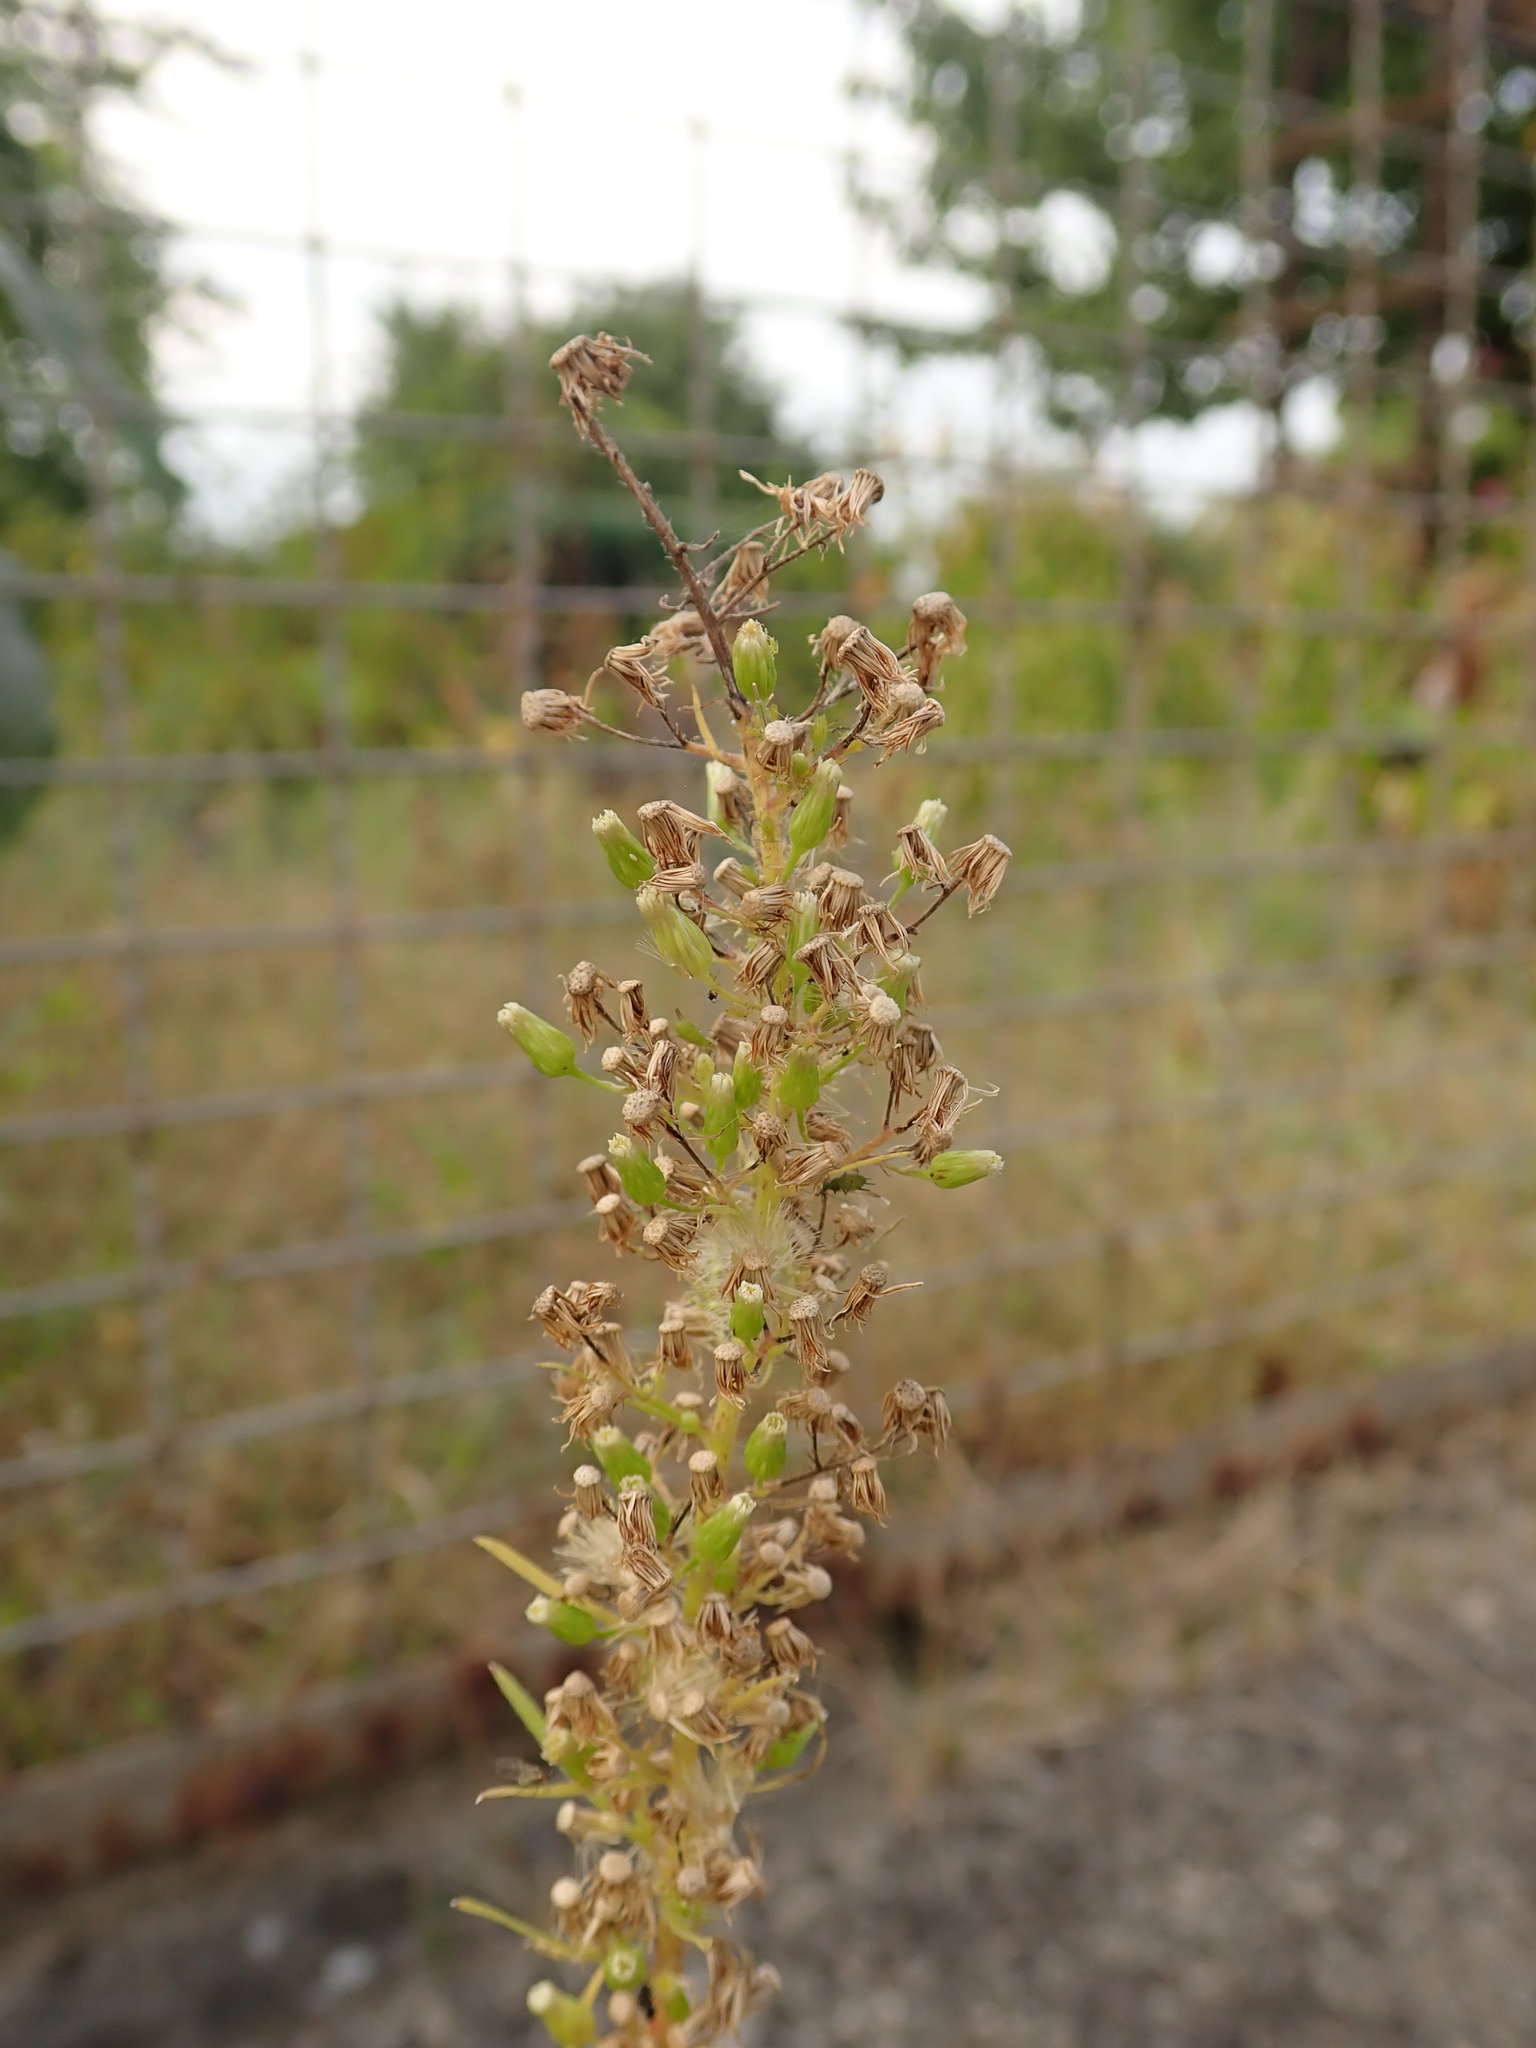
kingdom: Plantae
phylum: Tracheophyta
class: Magnoliopsida
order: Asterales
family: Asteraceae
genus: Erigeron
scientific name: Erigeron canadensis
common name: Canadian fleabane
